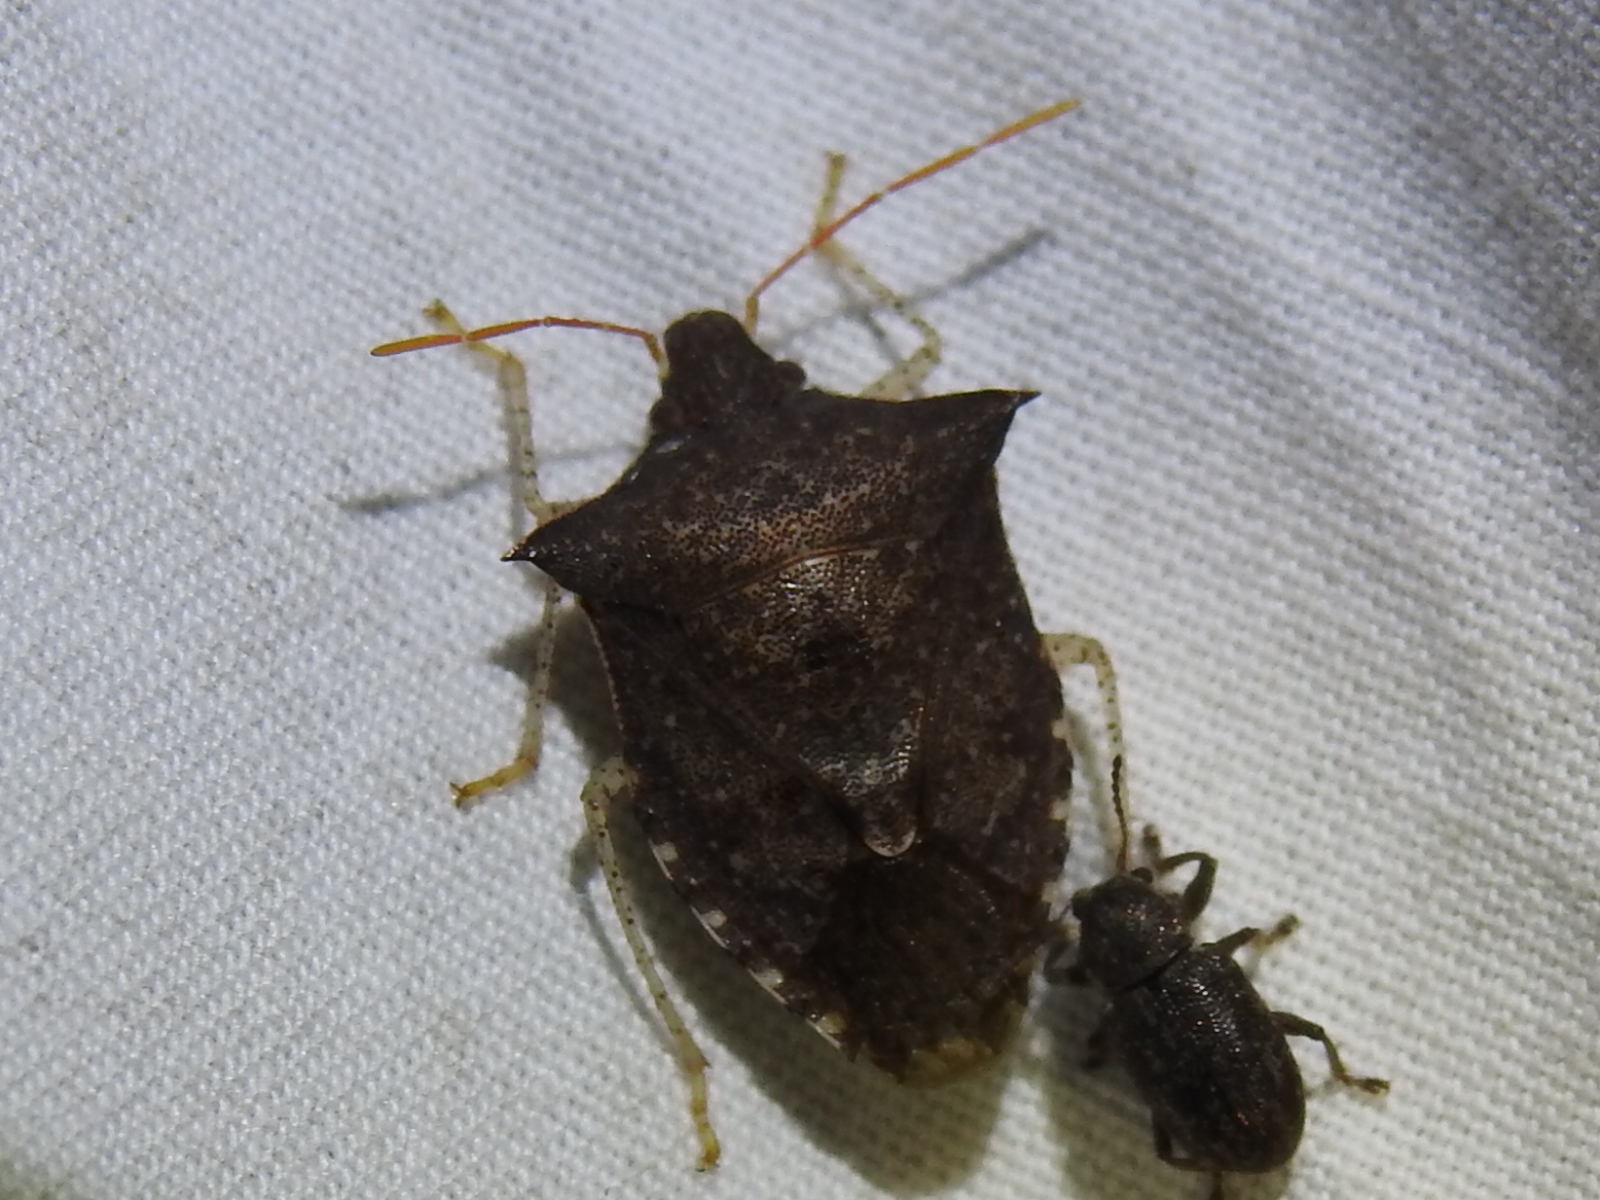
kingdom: Animalia
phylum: Arthropoda
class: Insecta
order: Hemiptera
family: Pentatomidae
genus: Euschistus
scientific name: Euschistus tristigmus
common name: Dusky stink bug
